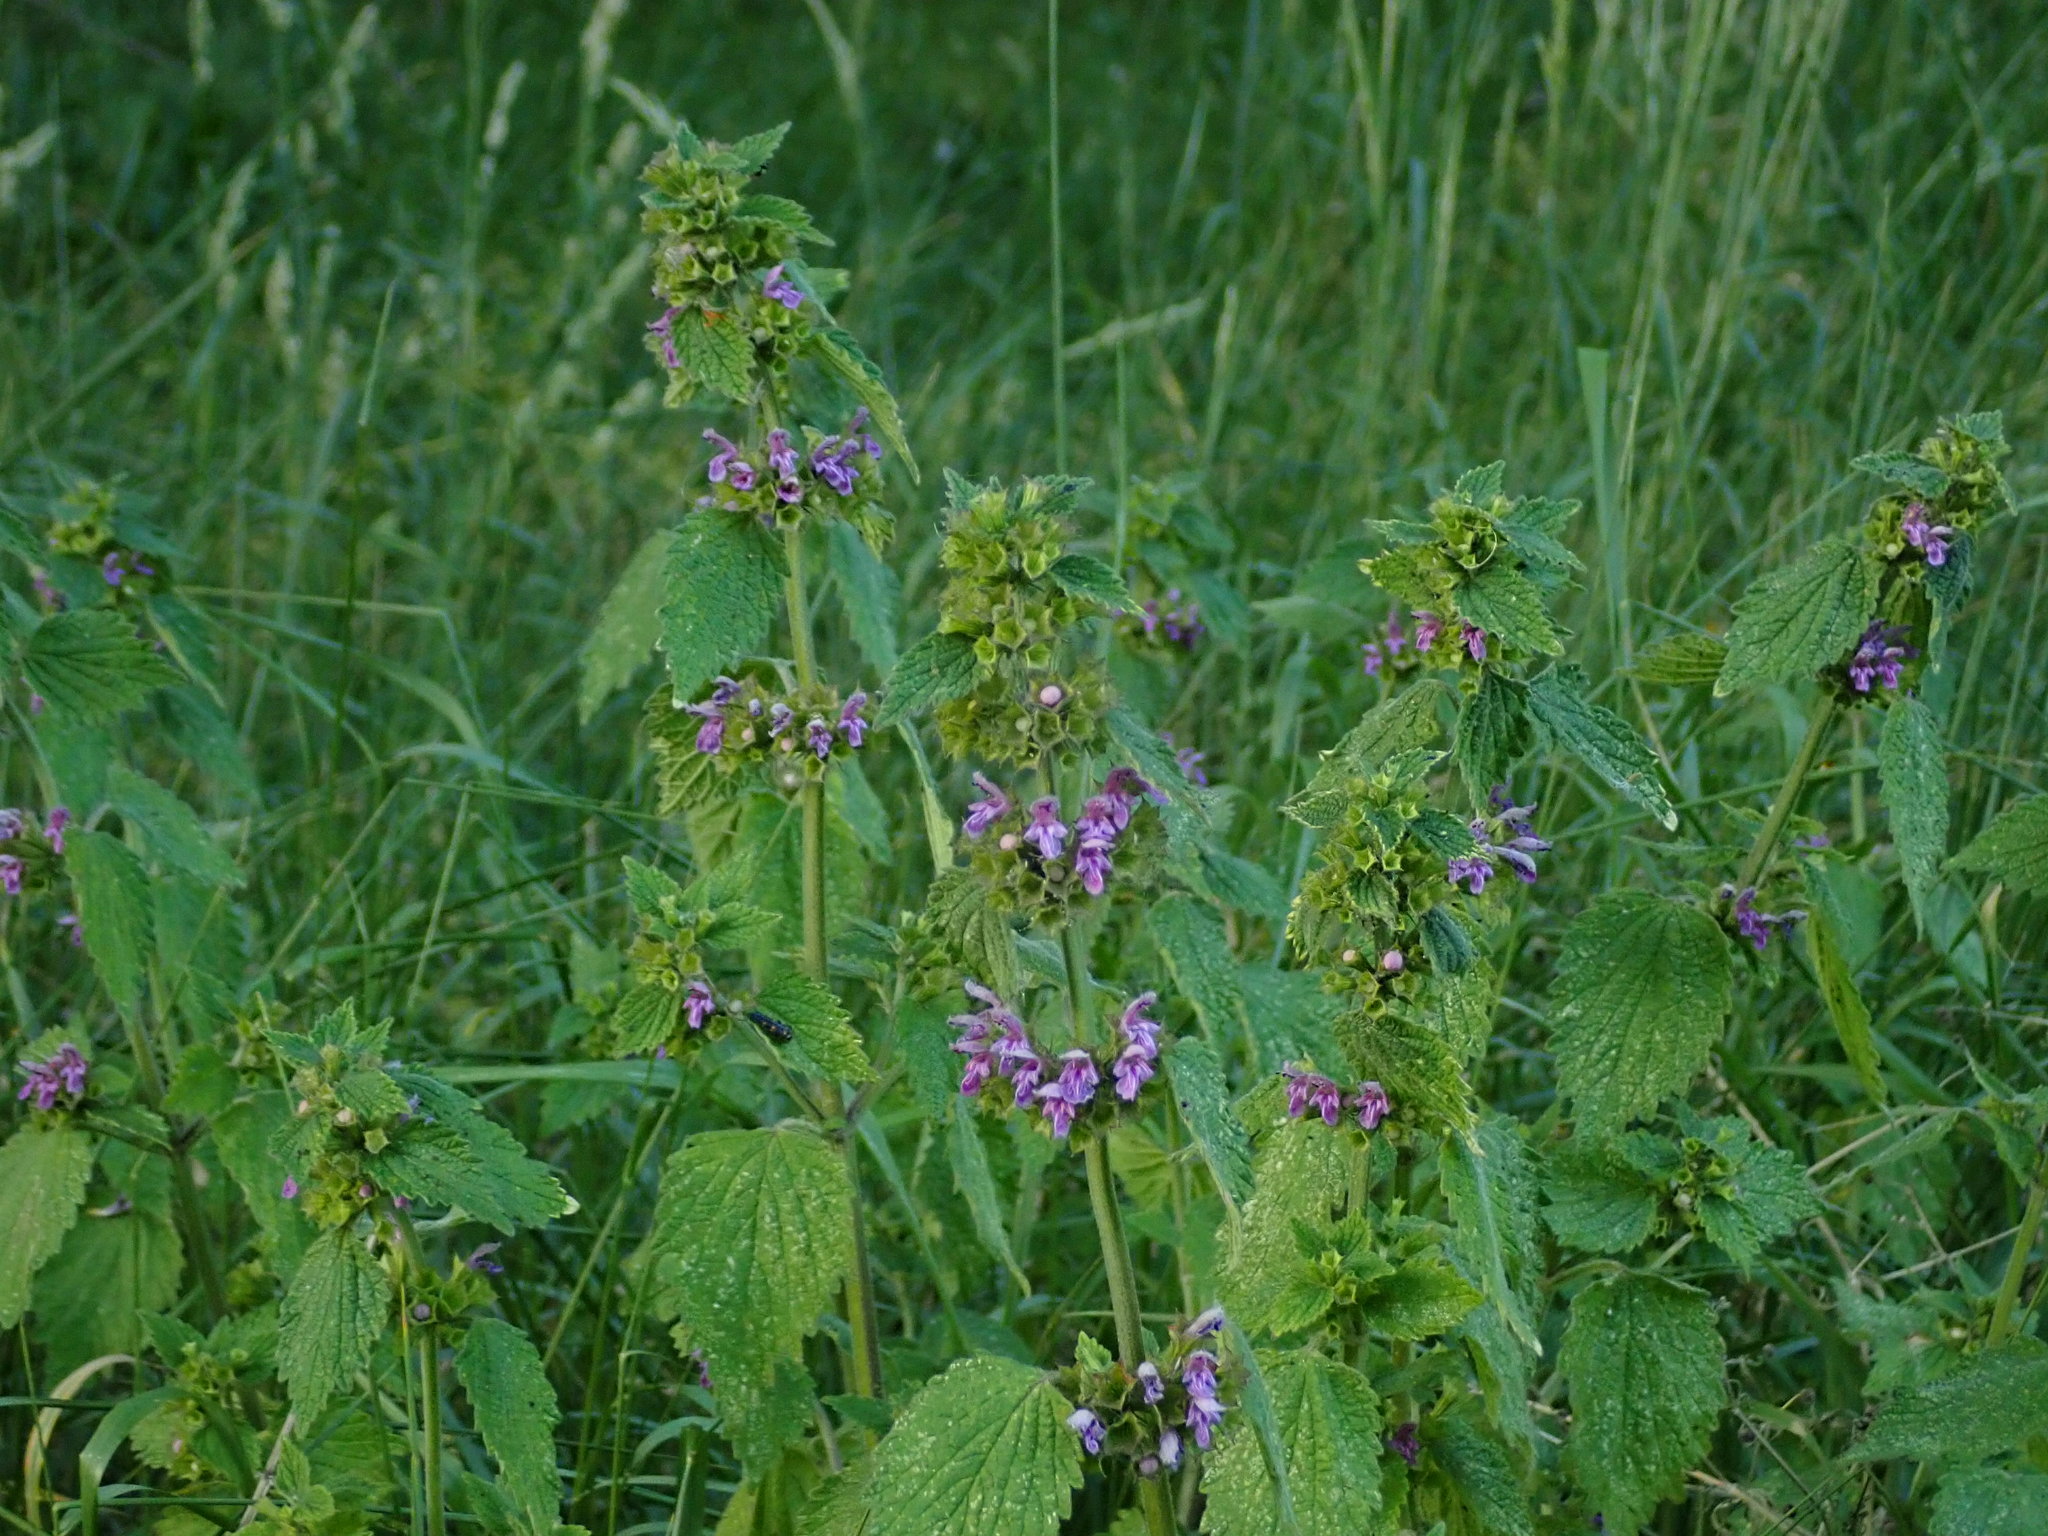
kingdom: Plantae
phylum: Tracheophyta
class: Magnoliopsida
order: Lamiales
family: Lamiaceae
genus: Ballota
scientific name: Ballota nigra
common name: Black horehound
